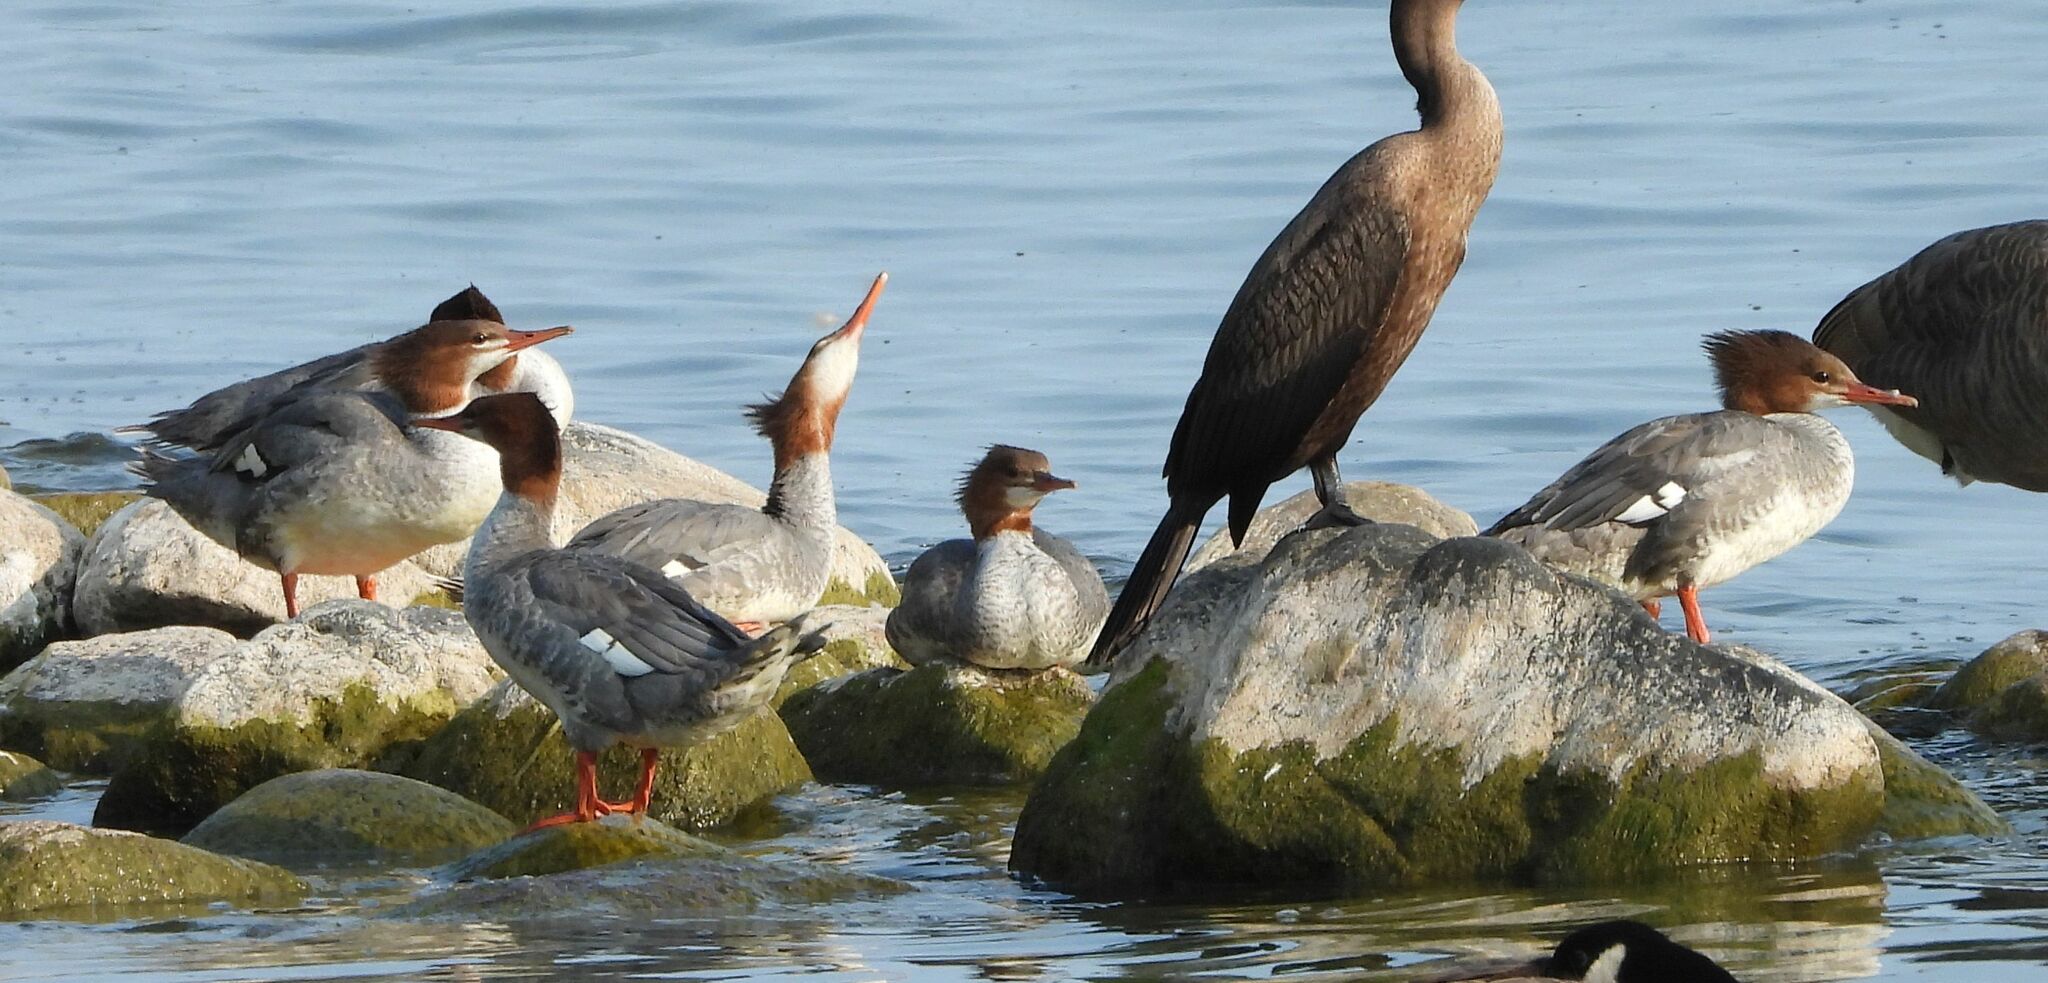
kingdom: Animalia
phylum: Chordata
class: Aves
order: Anseriformes
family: Anatidae
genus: Mergus
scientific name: Mergus merganser
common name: Common merganser
